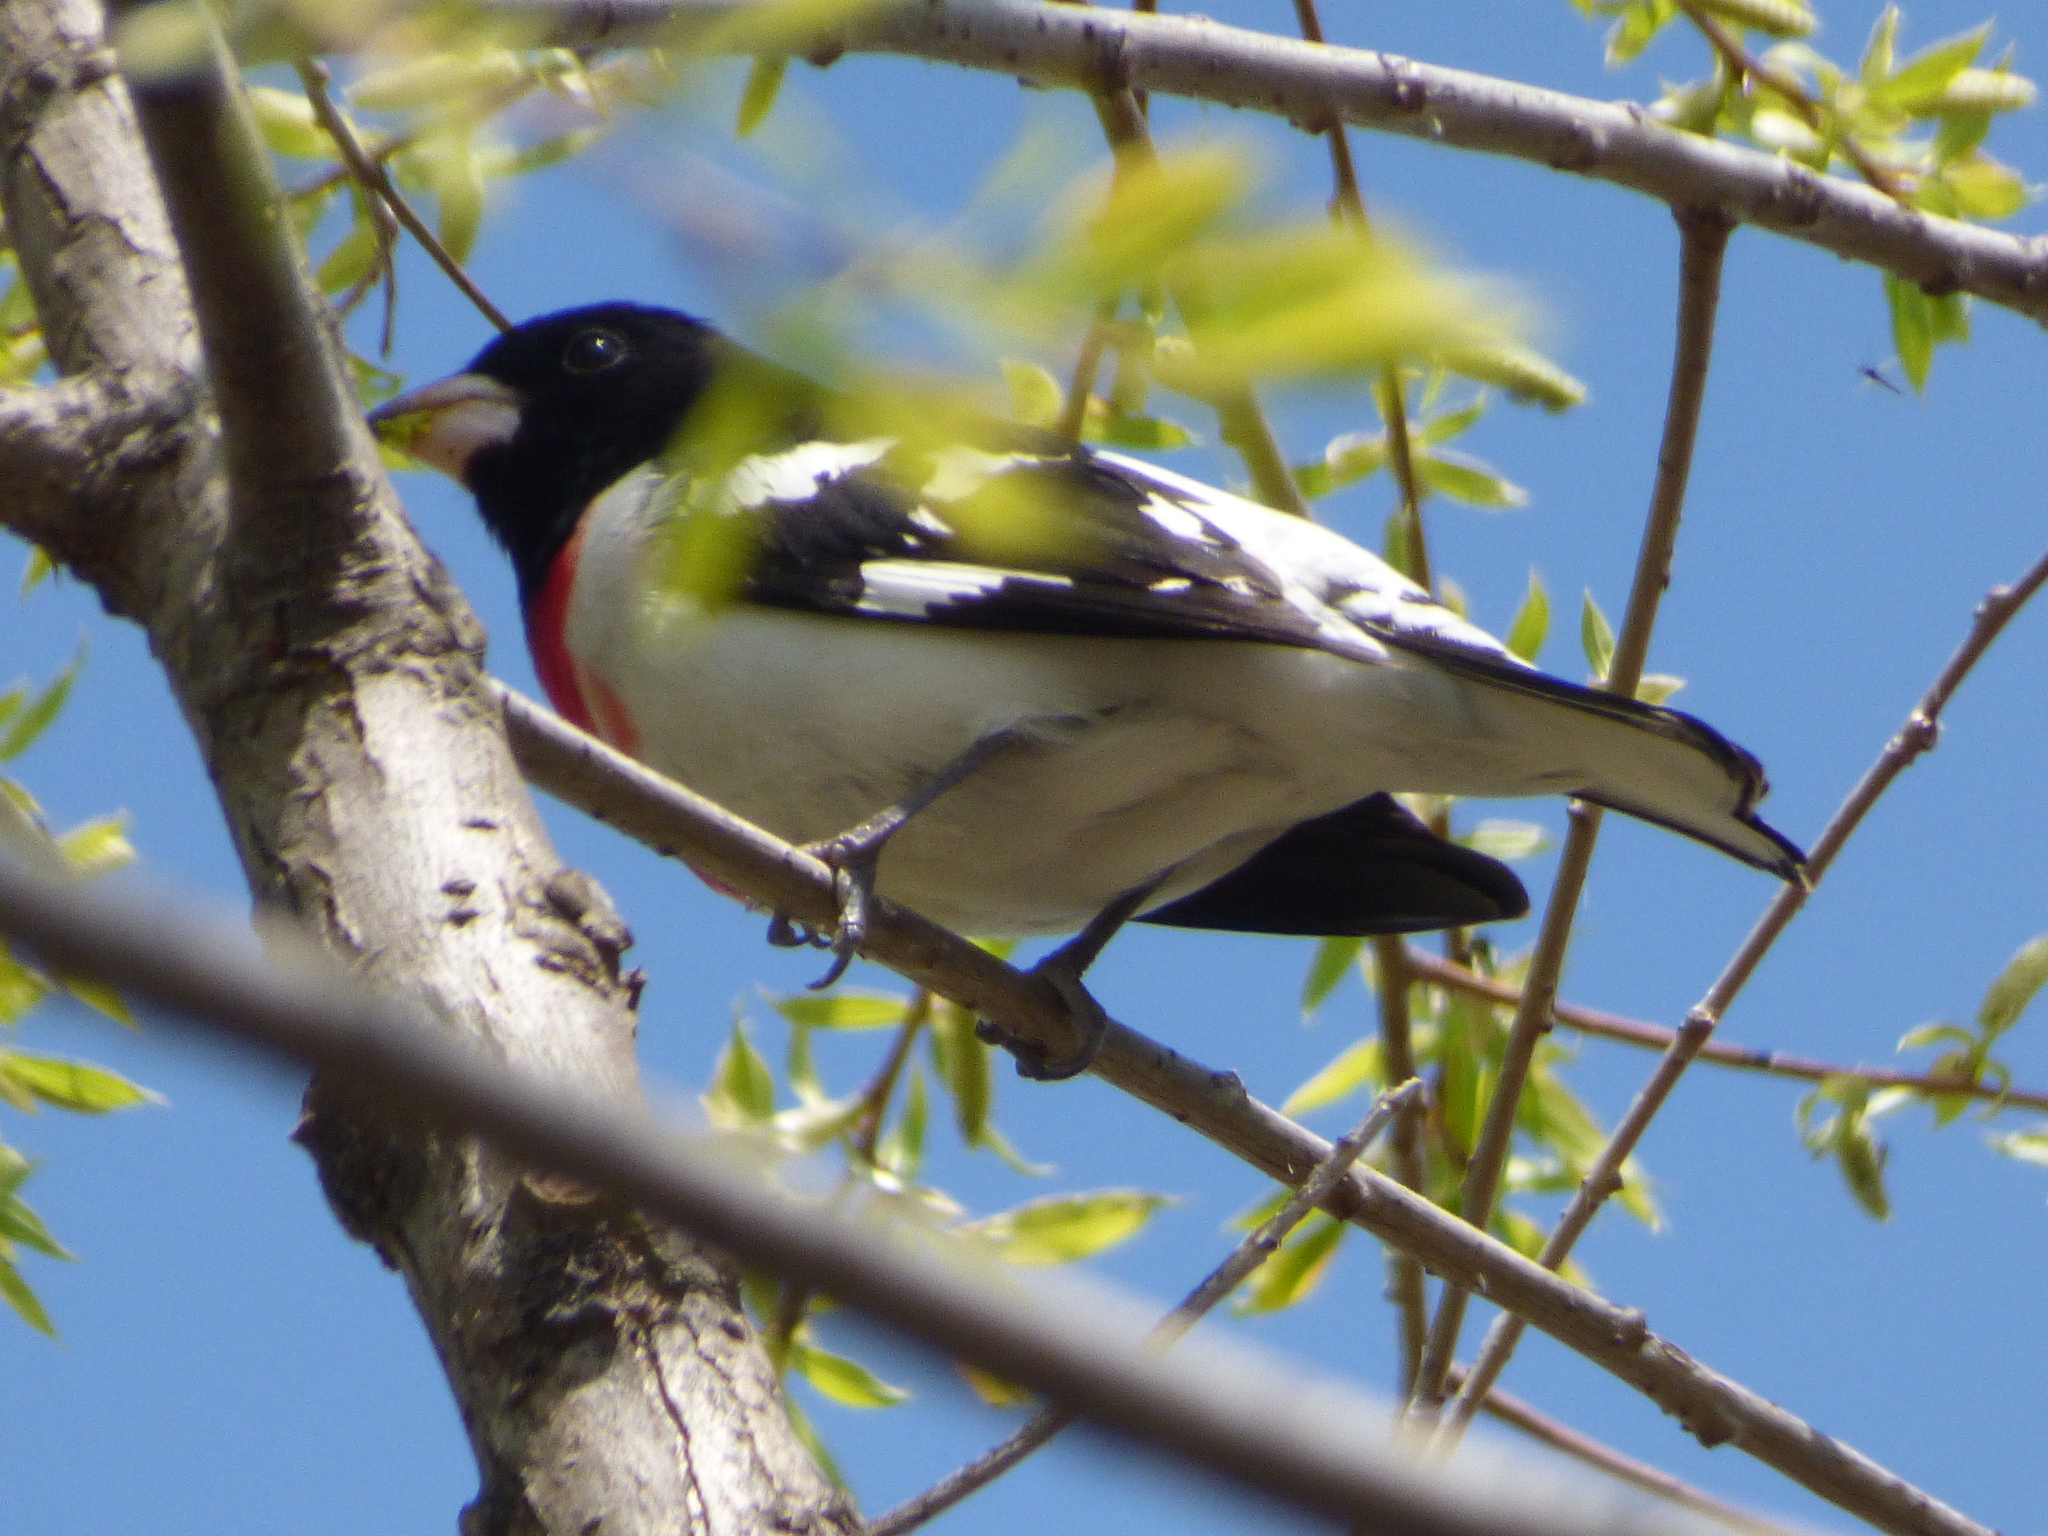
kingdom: Animalia
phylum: Chordata
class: Aves
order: Passeriformes
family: Cardinalidae
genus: Pheucticus
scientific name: Pheucticus ludovicianus
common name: Rose-breasted grosbeak
